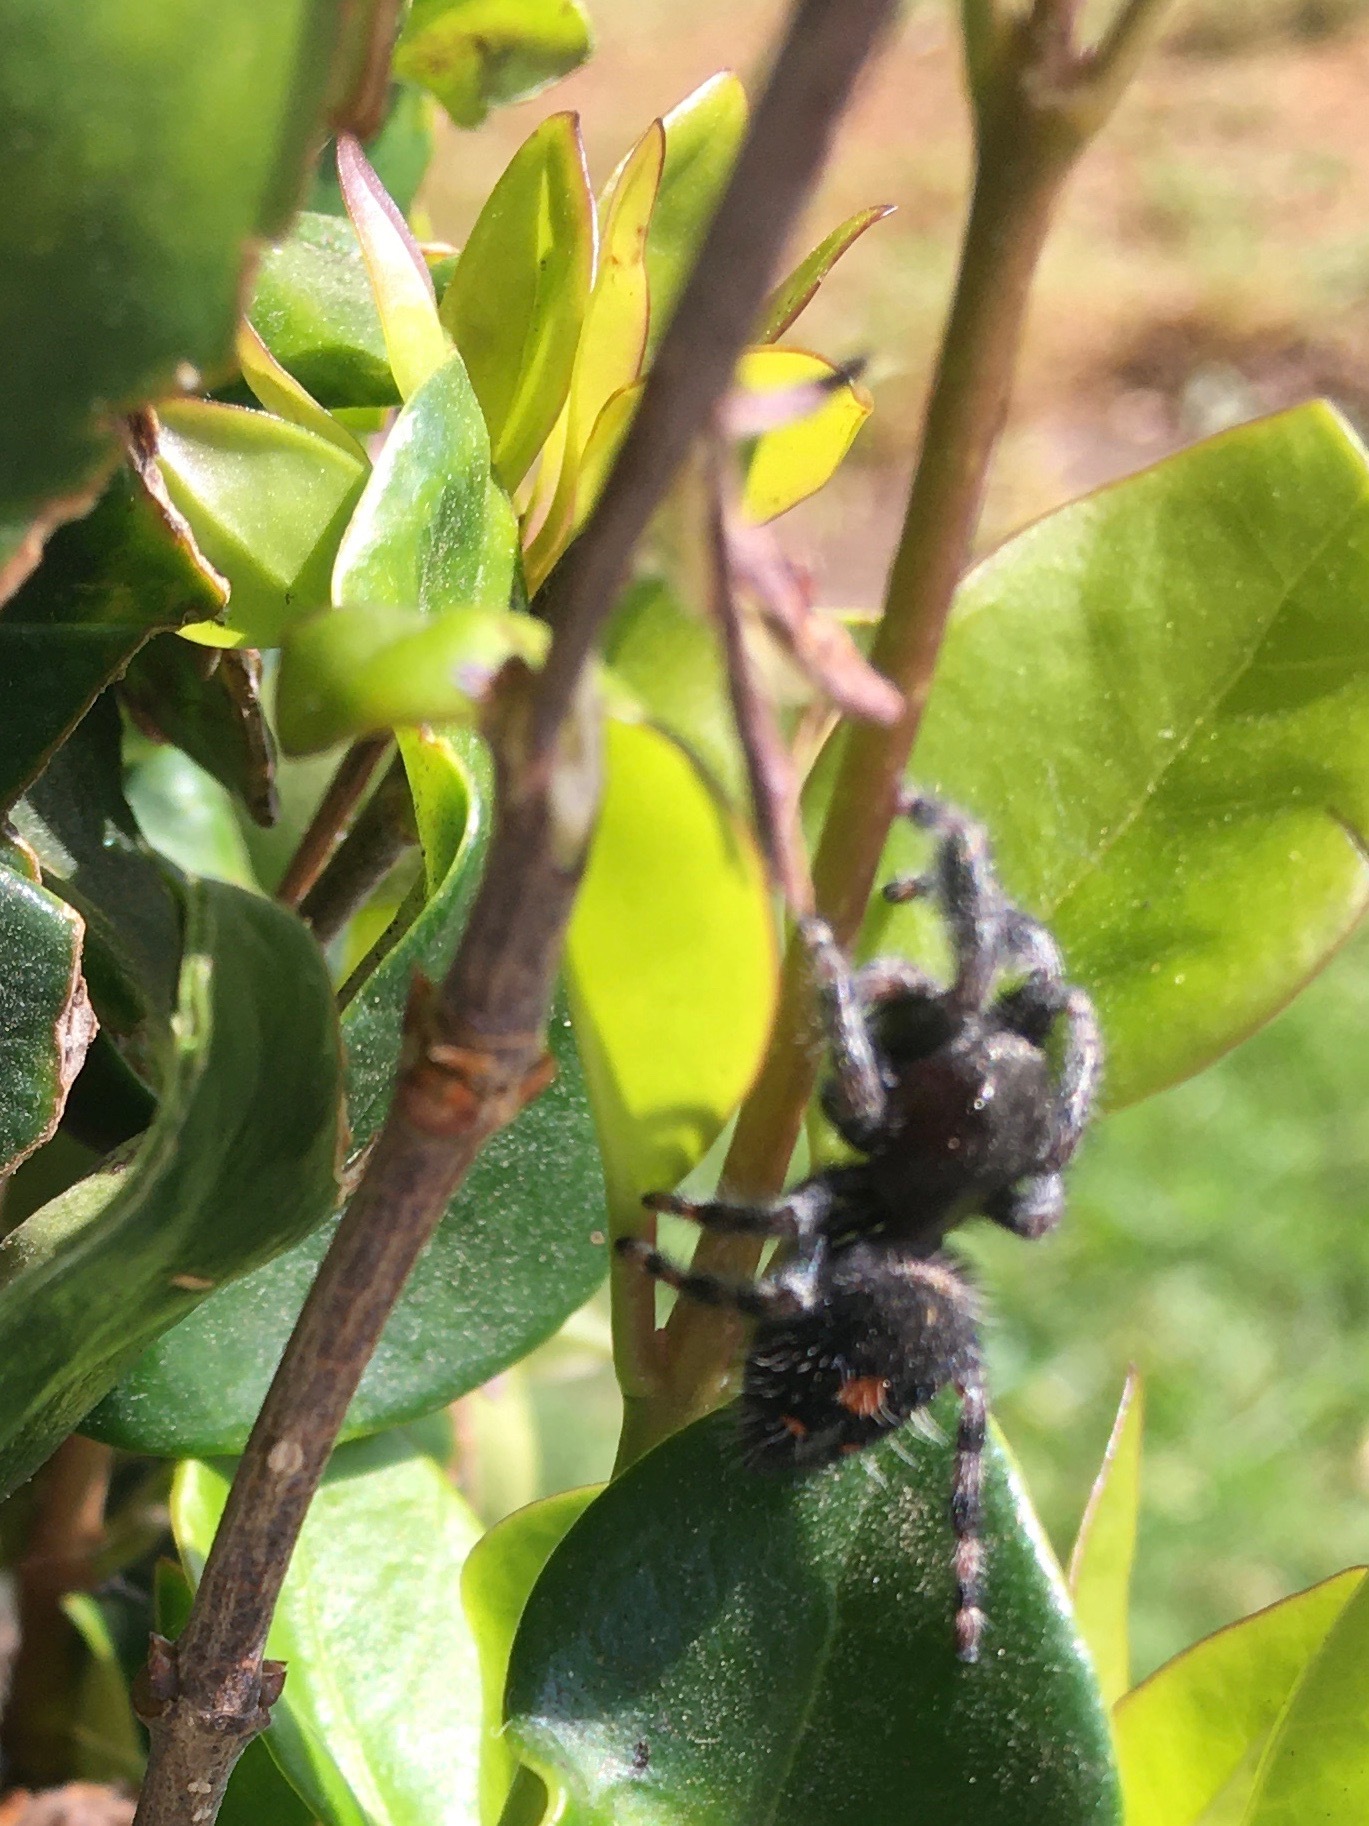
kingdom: Animalia
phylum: Arthropoda
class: Arachnida
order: Araneae
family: Salticidae
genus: Phidippus
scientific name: Phidippus audax
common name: Bold jumper
